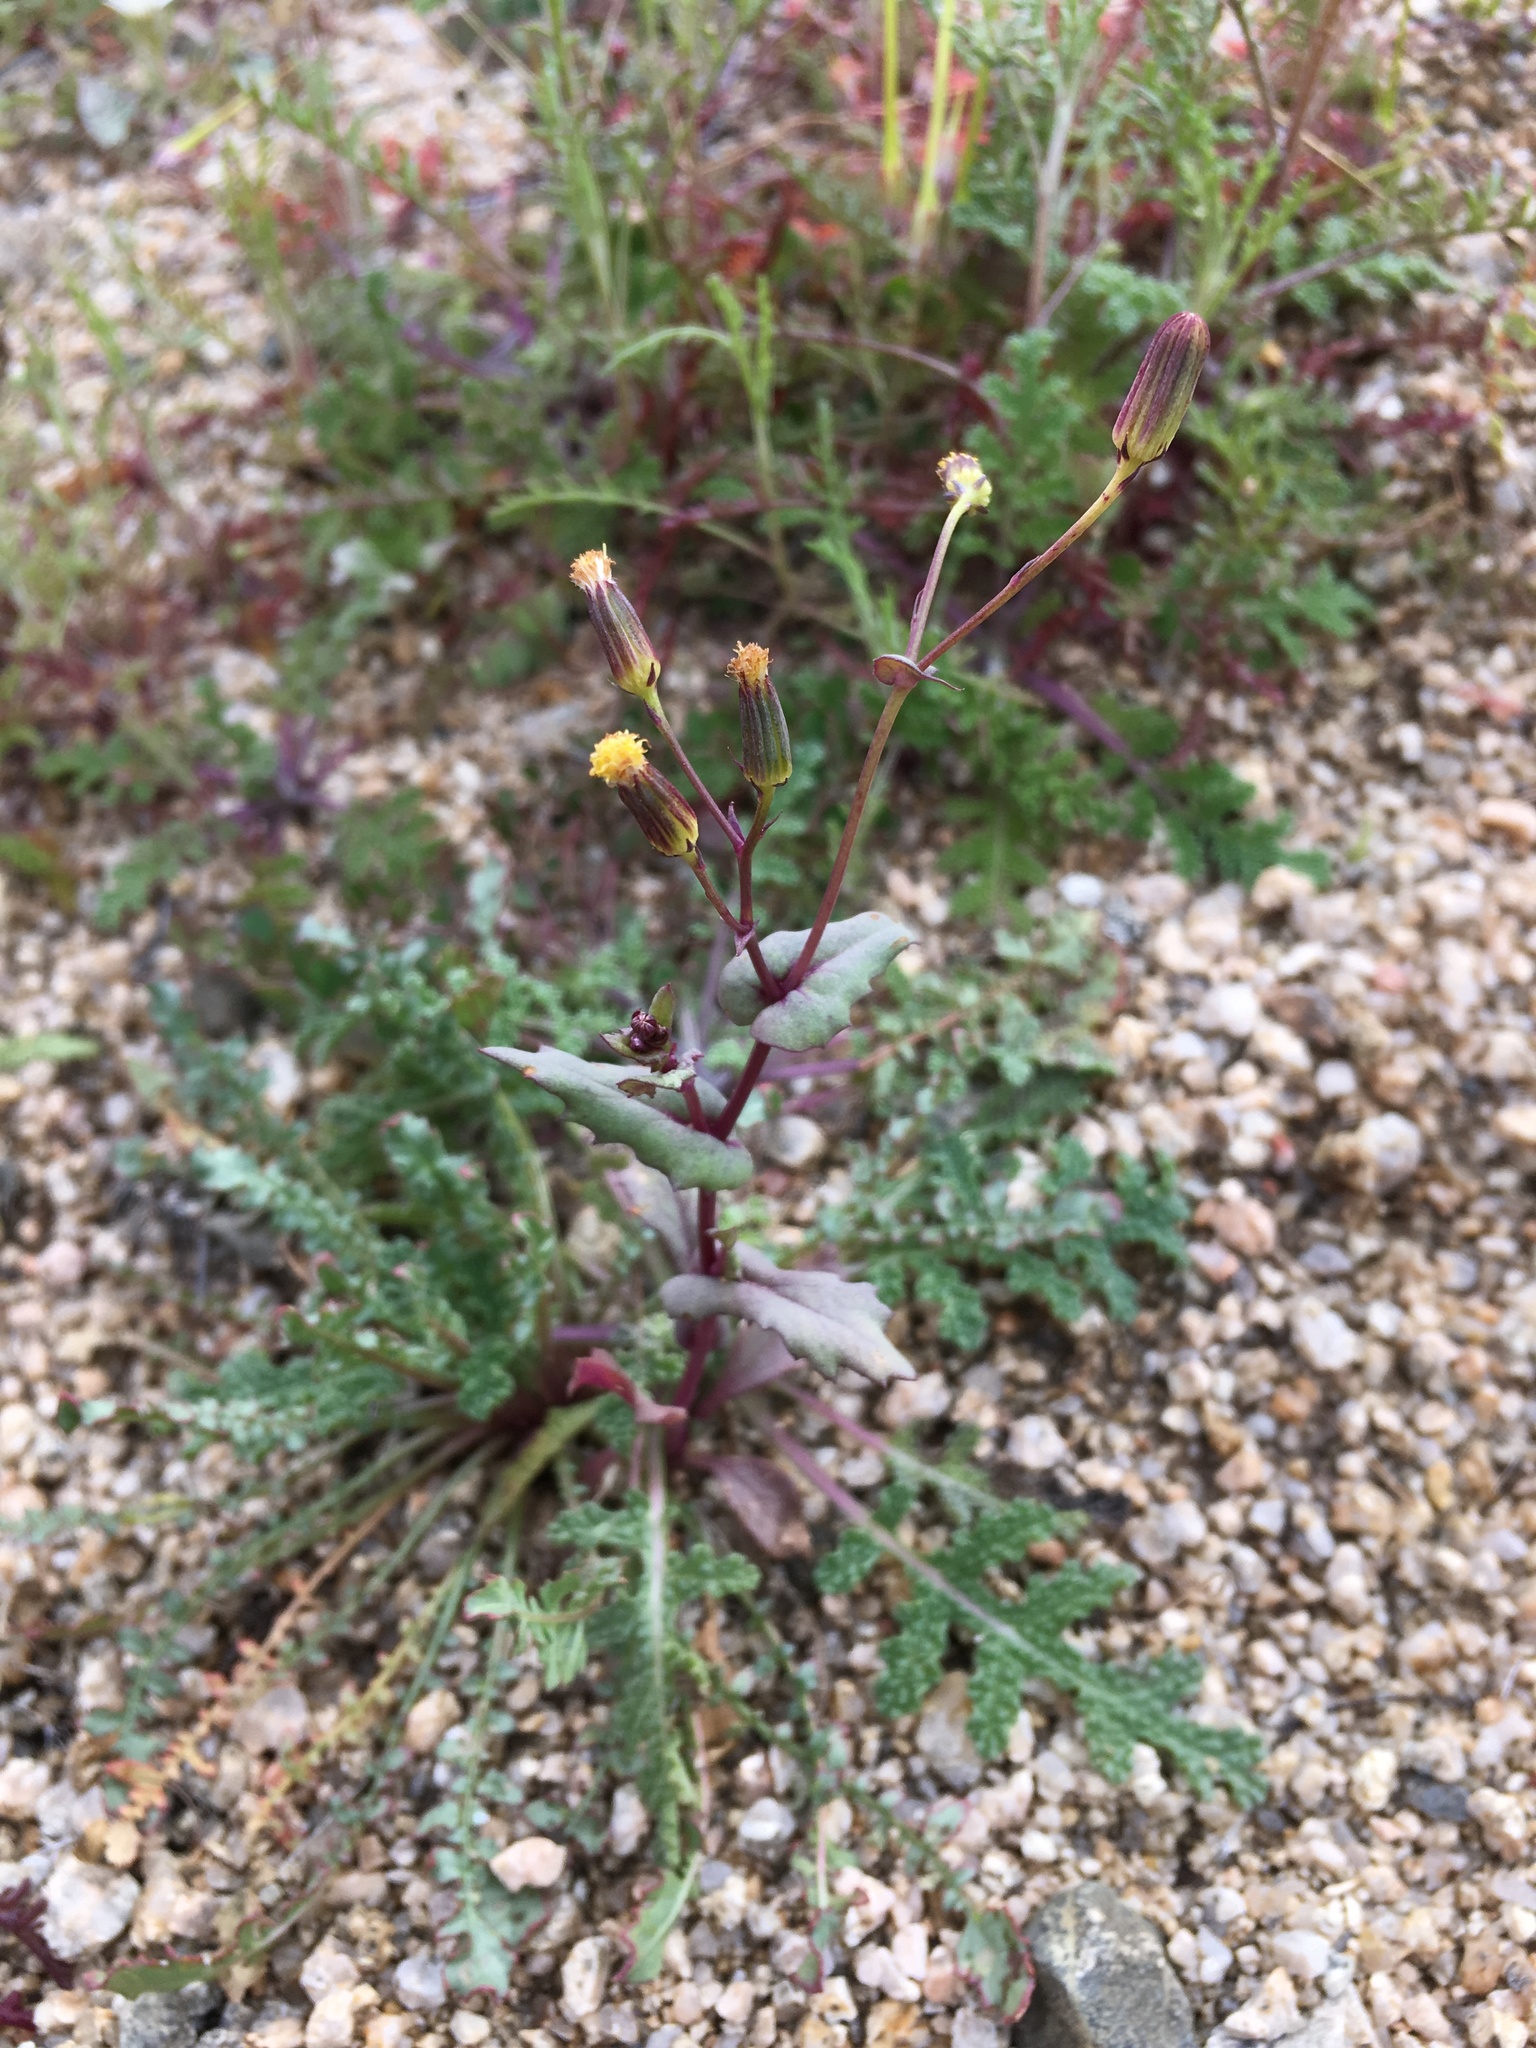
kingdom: Plantae
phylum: Tracheophyta
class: Magnoliopsida
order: Asterales
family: Asteraceae
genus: Senecio
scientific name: Senecio mohavensis
